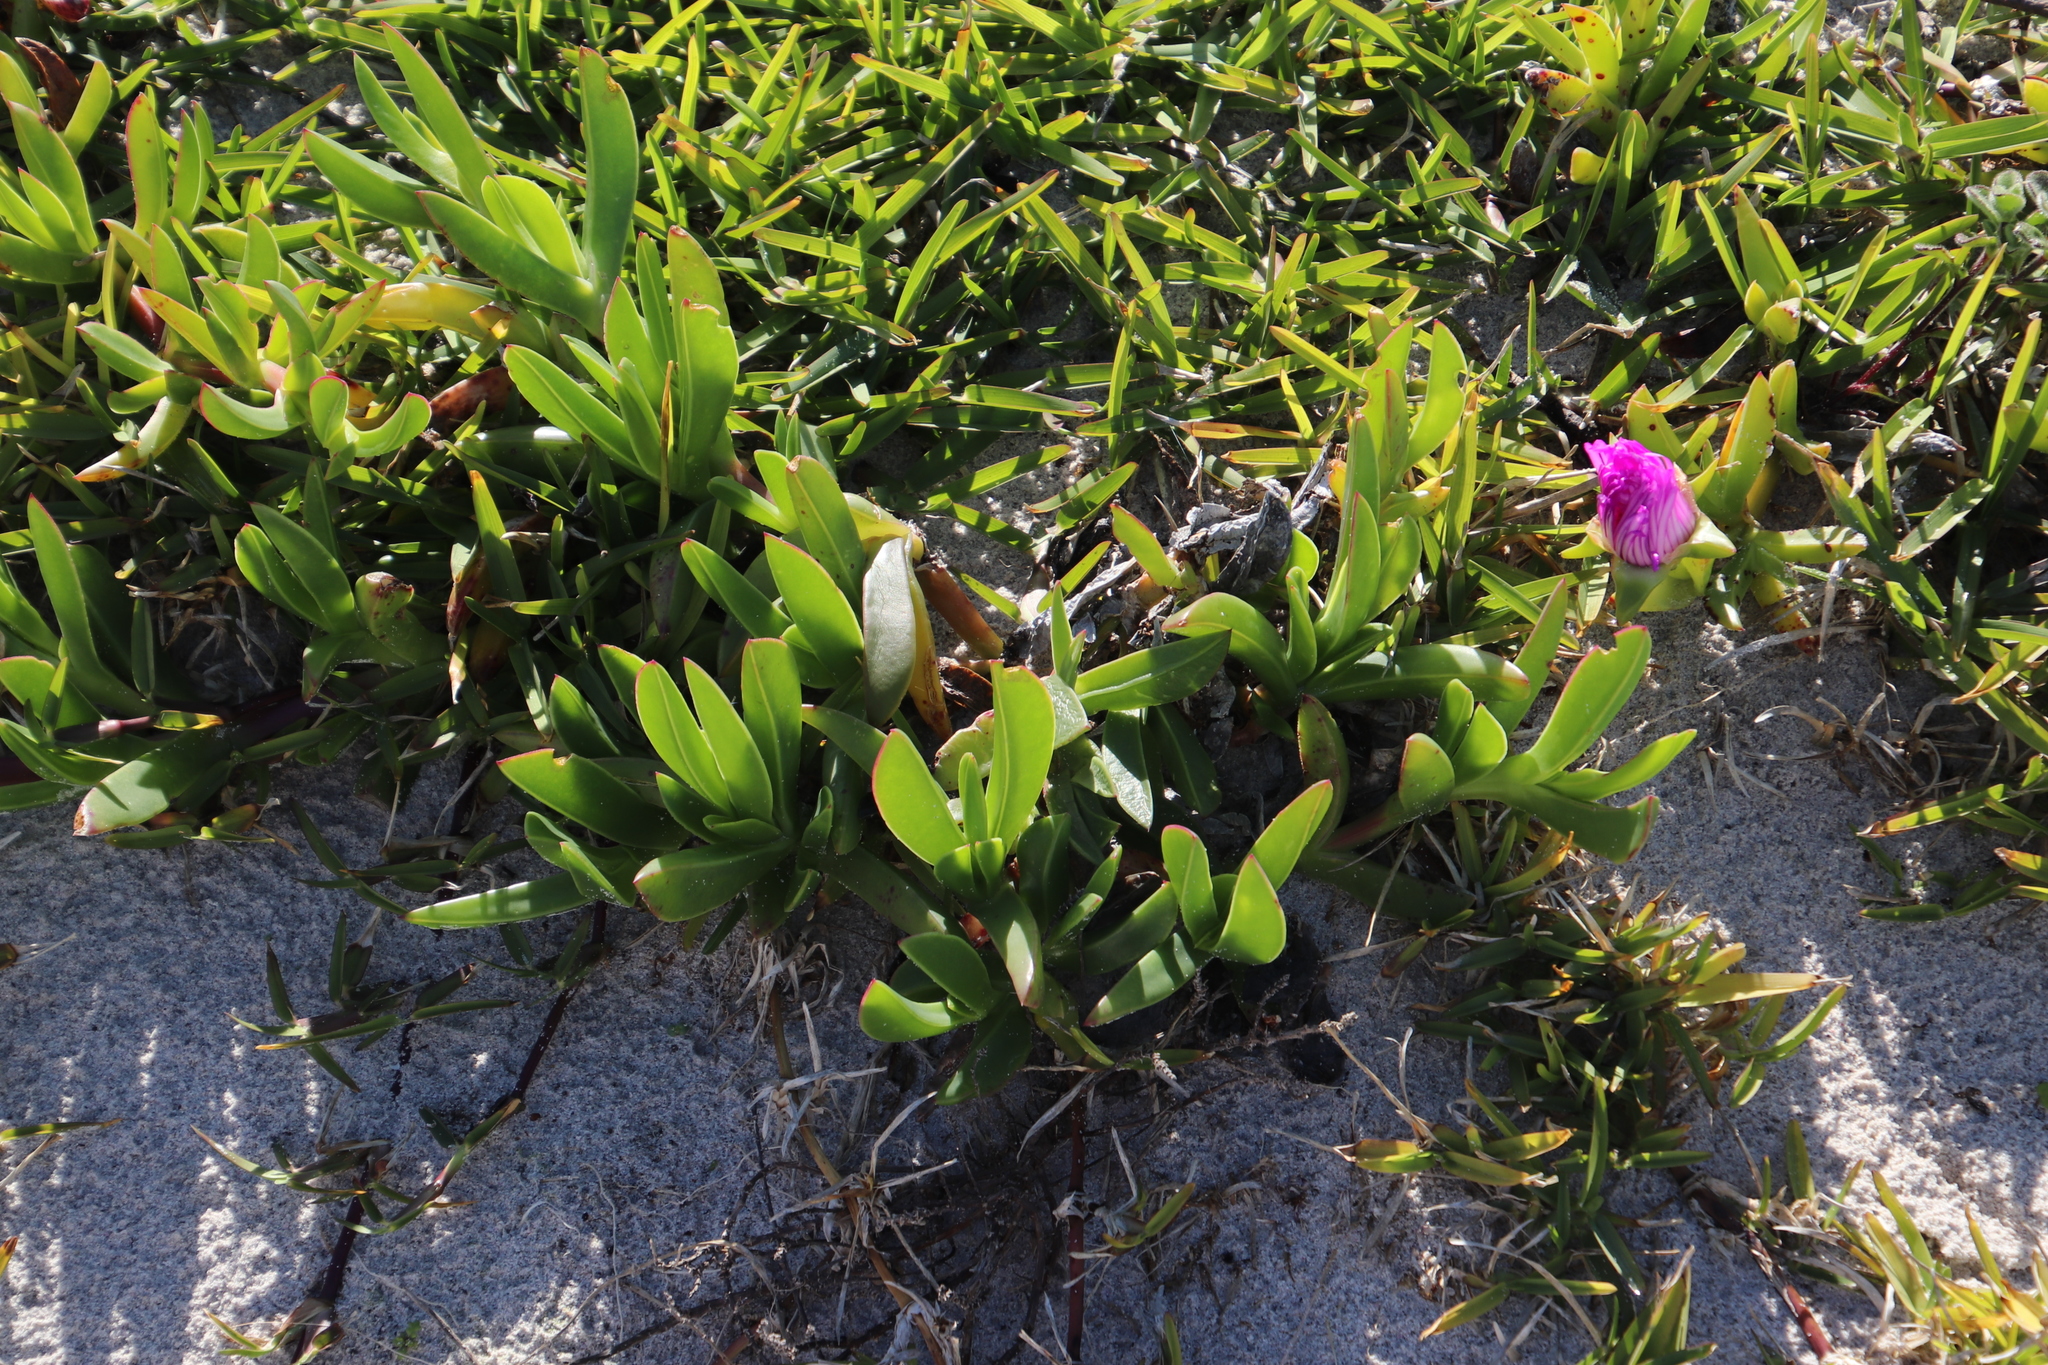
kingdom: Plantae
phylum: Tracheophyta
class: Magnoliopsida
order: Caryophyllales
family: Aizoaceae
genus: Carpobrotus
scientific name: Carpobrotus acinaciformis
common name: Sally-my-handsome
